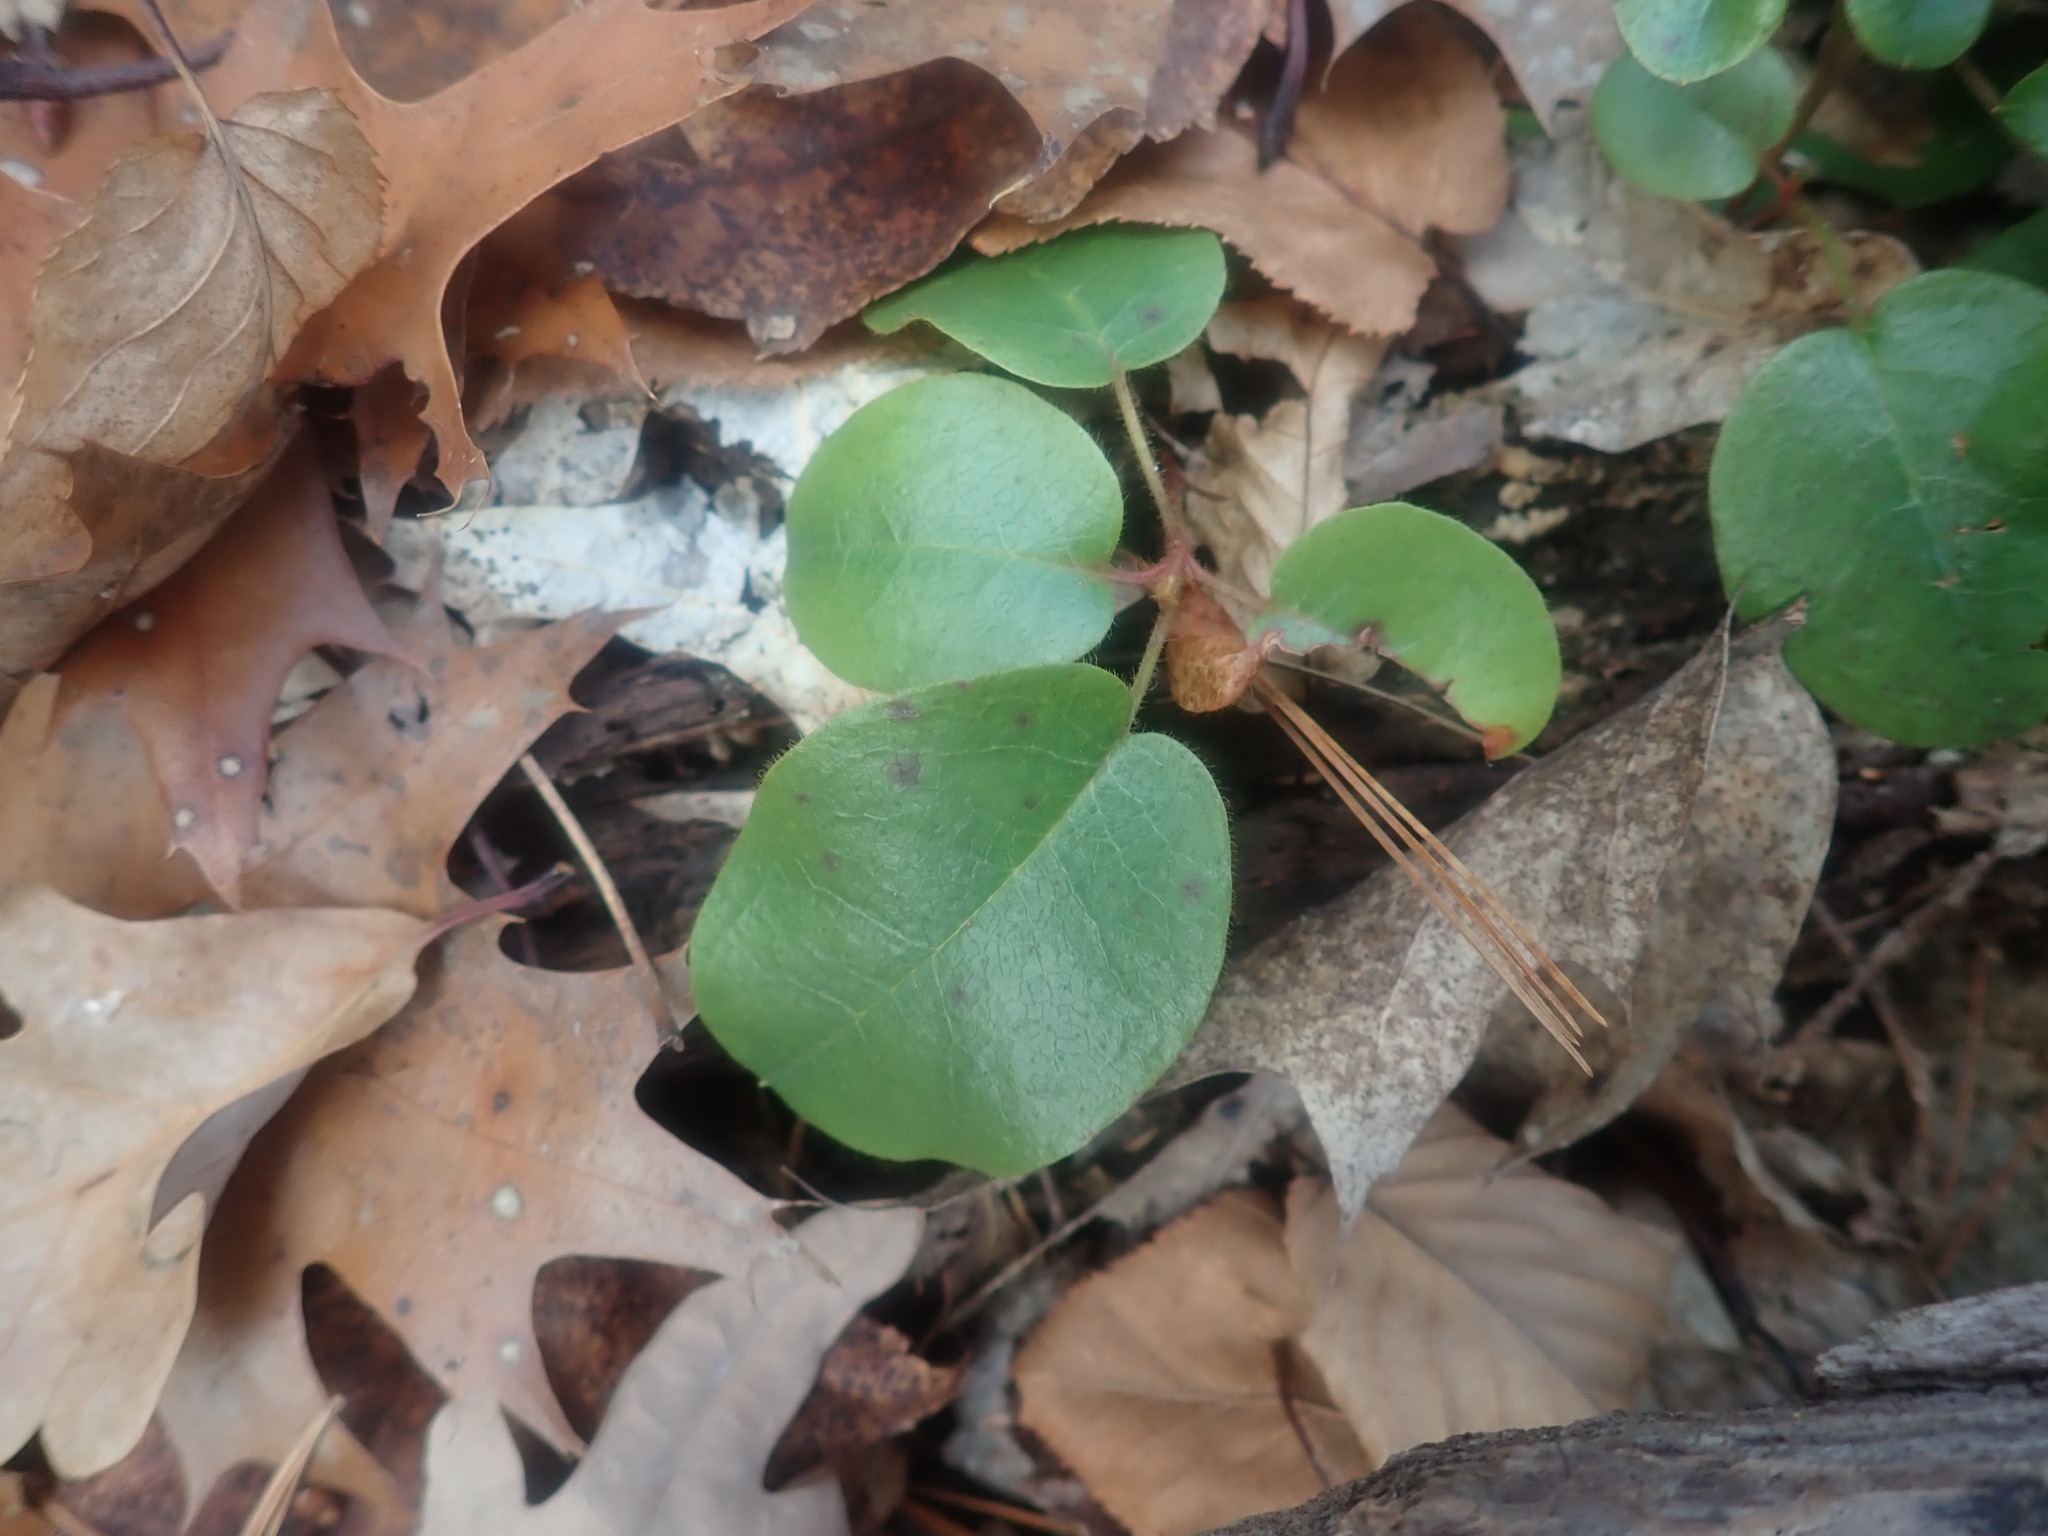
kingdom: Plantae
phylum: Tracheophyta
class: Magnoliopsida
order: Ericales
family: Ericaceae
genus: Epigaea
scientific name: Epigaea repens
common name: Gravelroot
